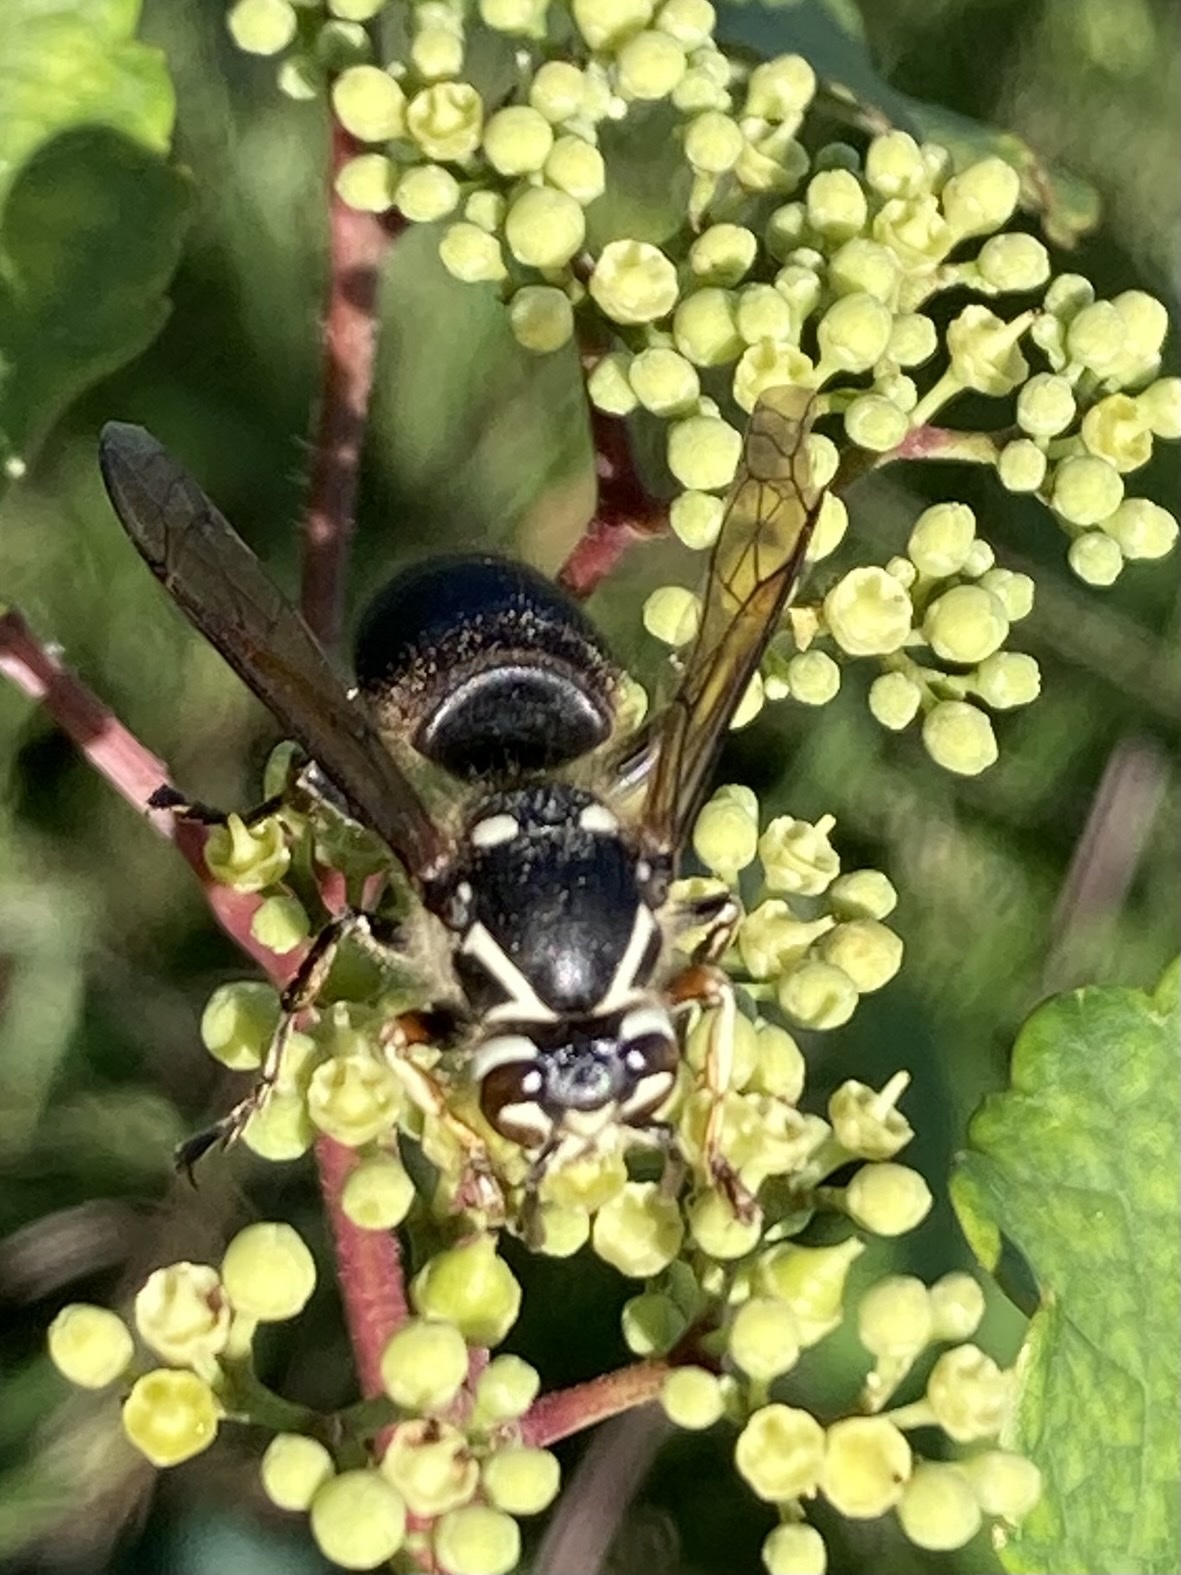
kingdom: Animalia
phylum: Arthropoda
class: Insecta
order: Hymenoptera
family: Vespidae
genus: Dolichovespula
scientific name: Dolichovespula maculata
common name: Bald-faced hornet
